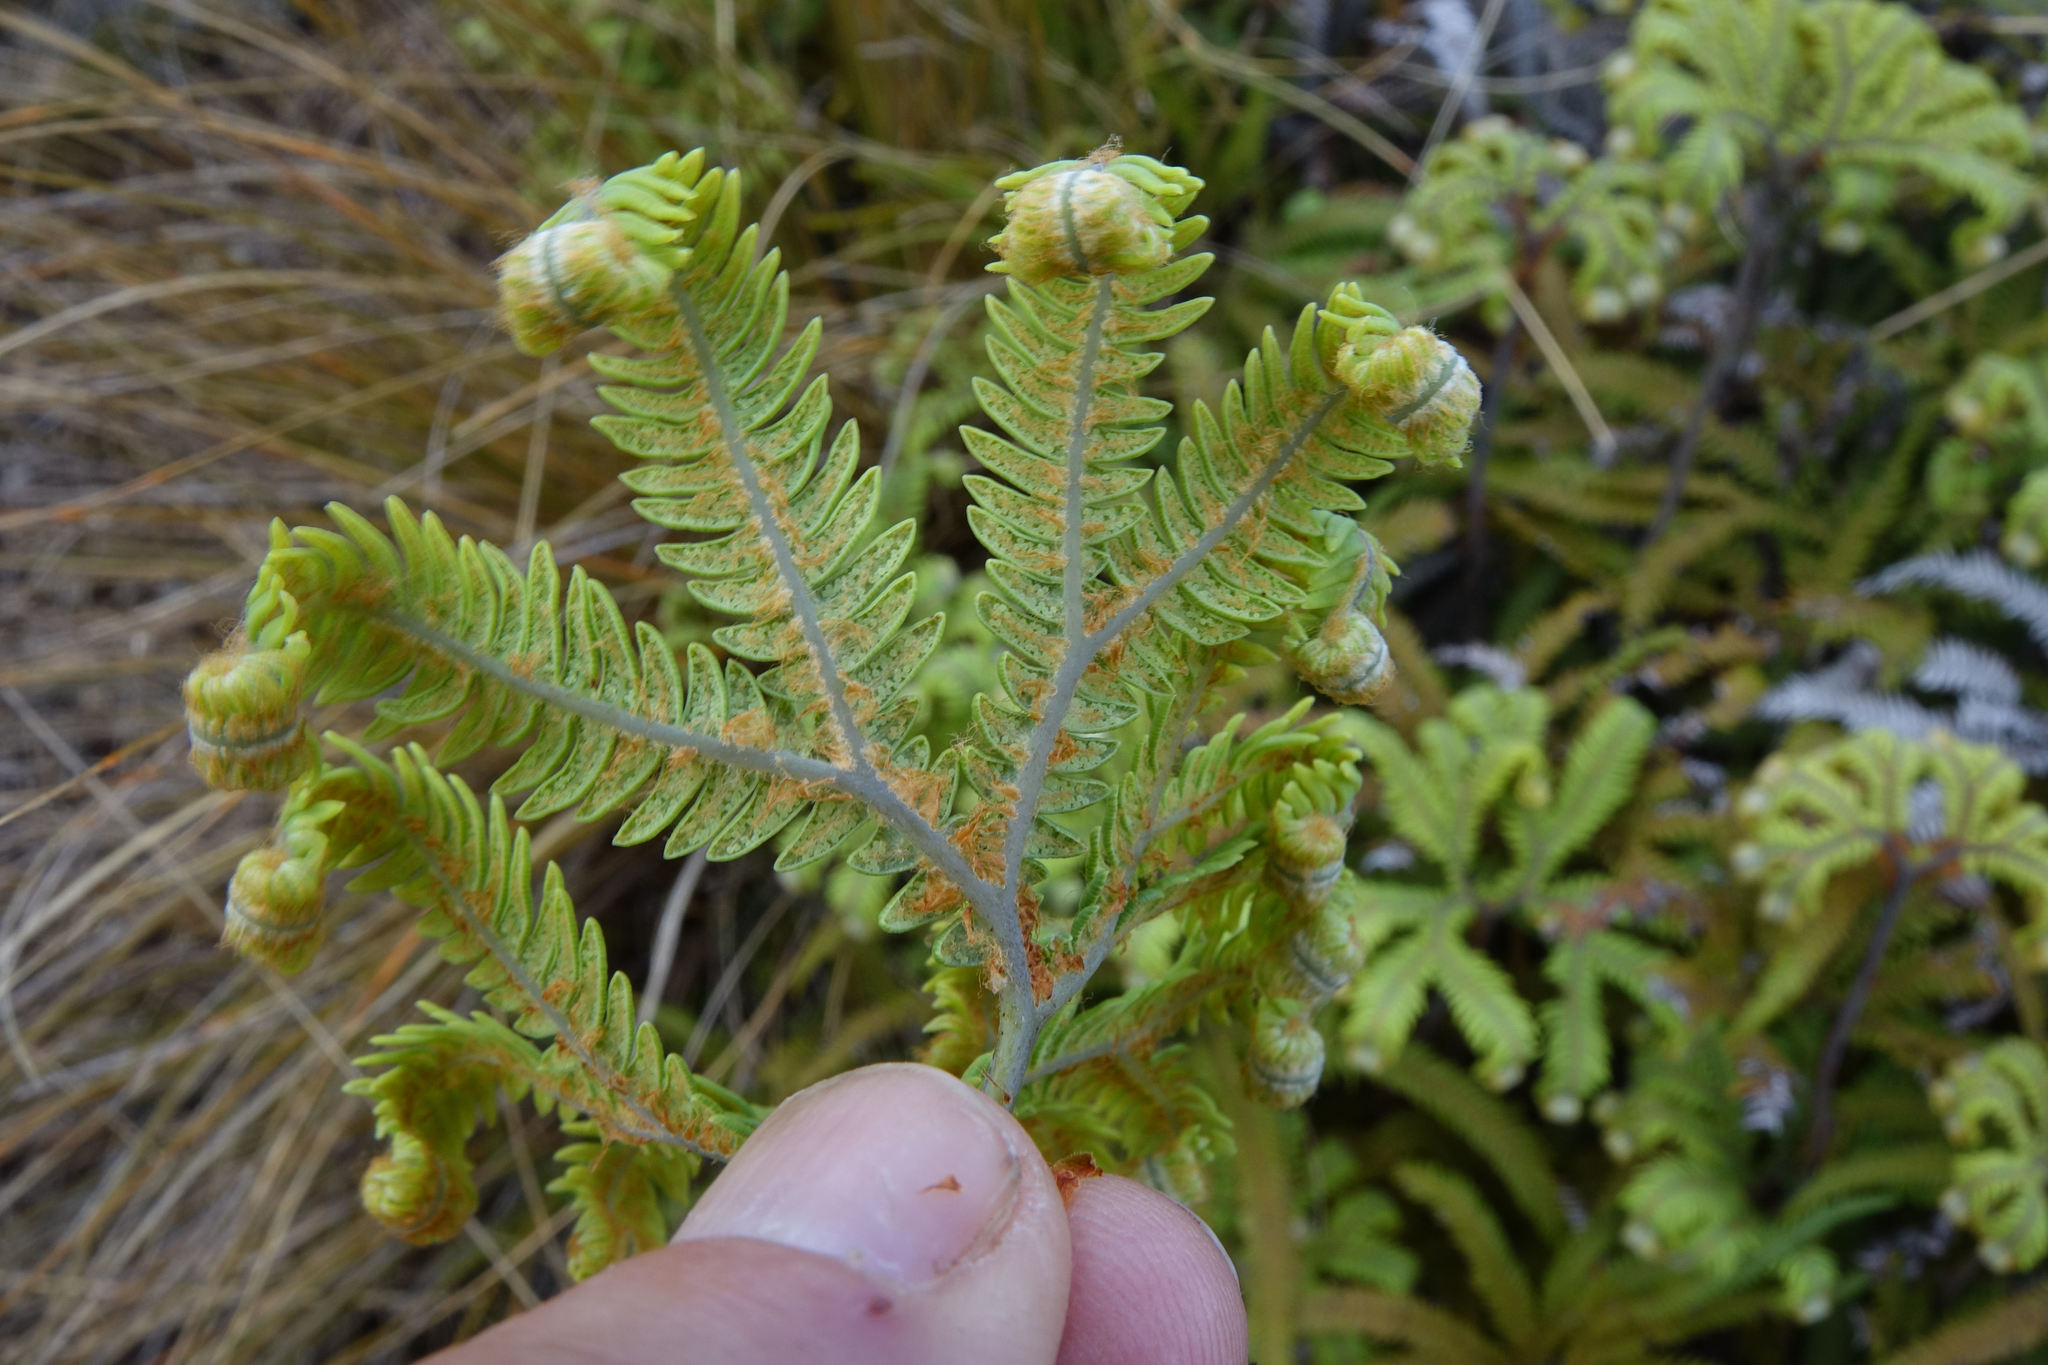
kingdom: Plantae
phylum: Tracheophyta
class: Polypodiopsida
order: Gleicheniales
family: Gleicheniaceae
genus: Sticherus
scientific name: Sticherus cunninghamii
